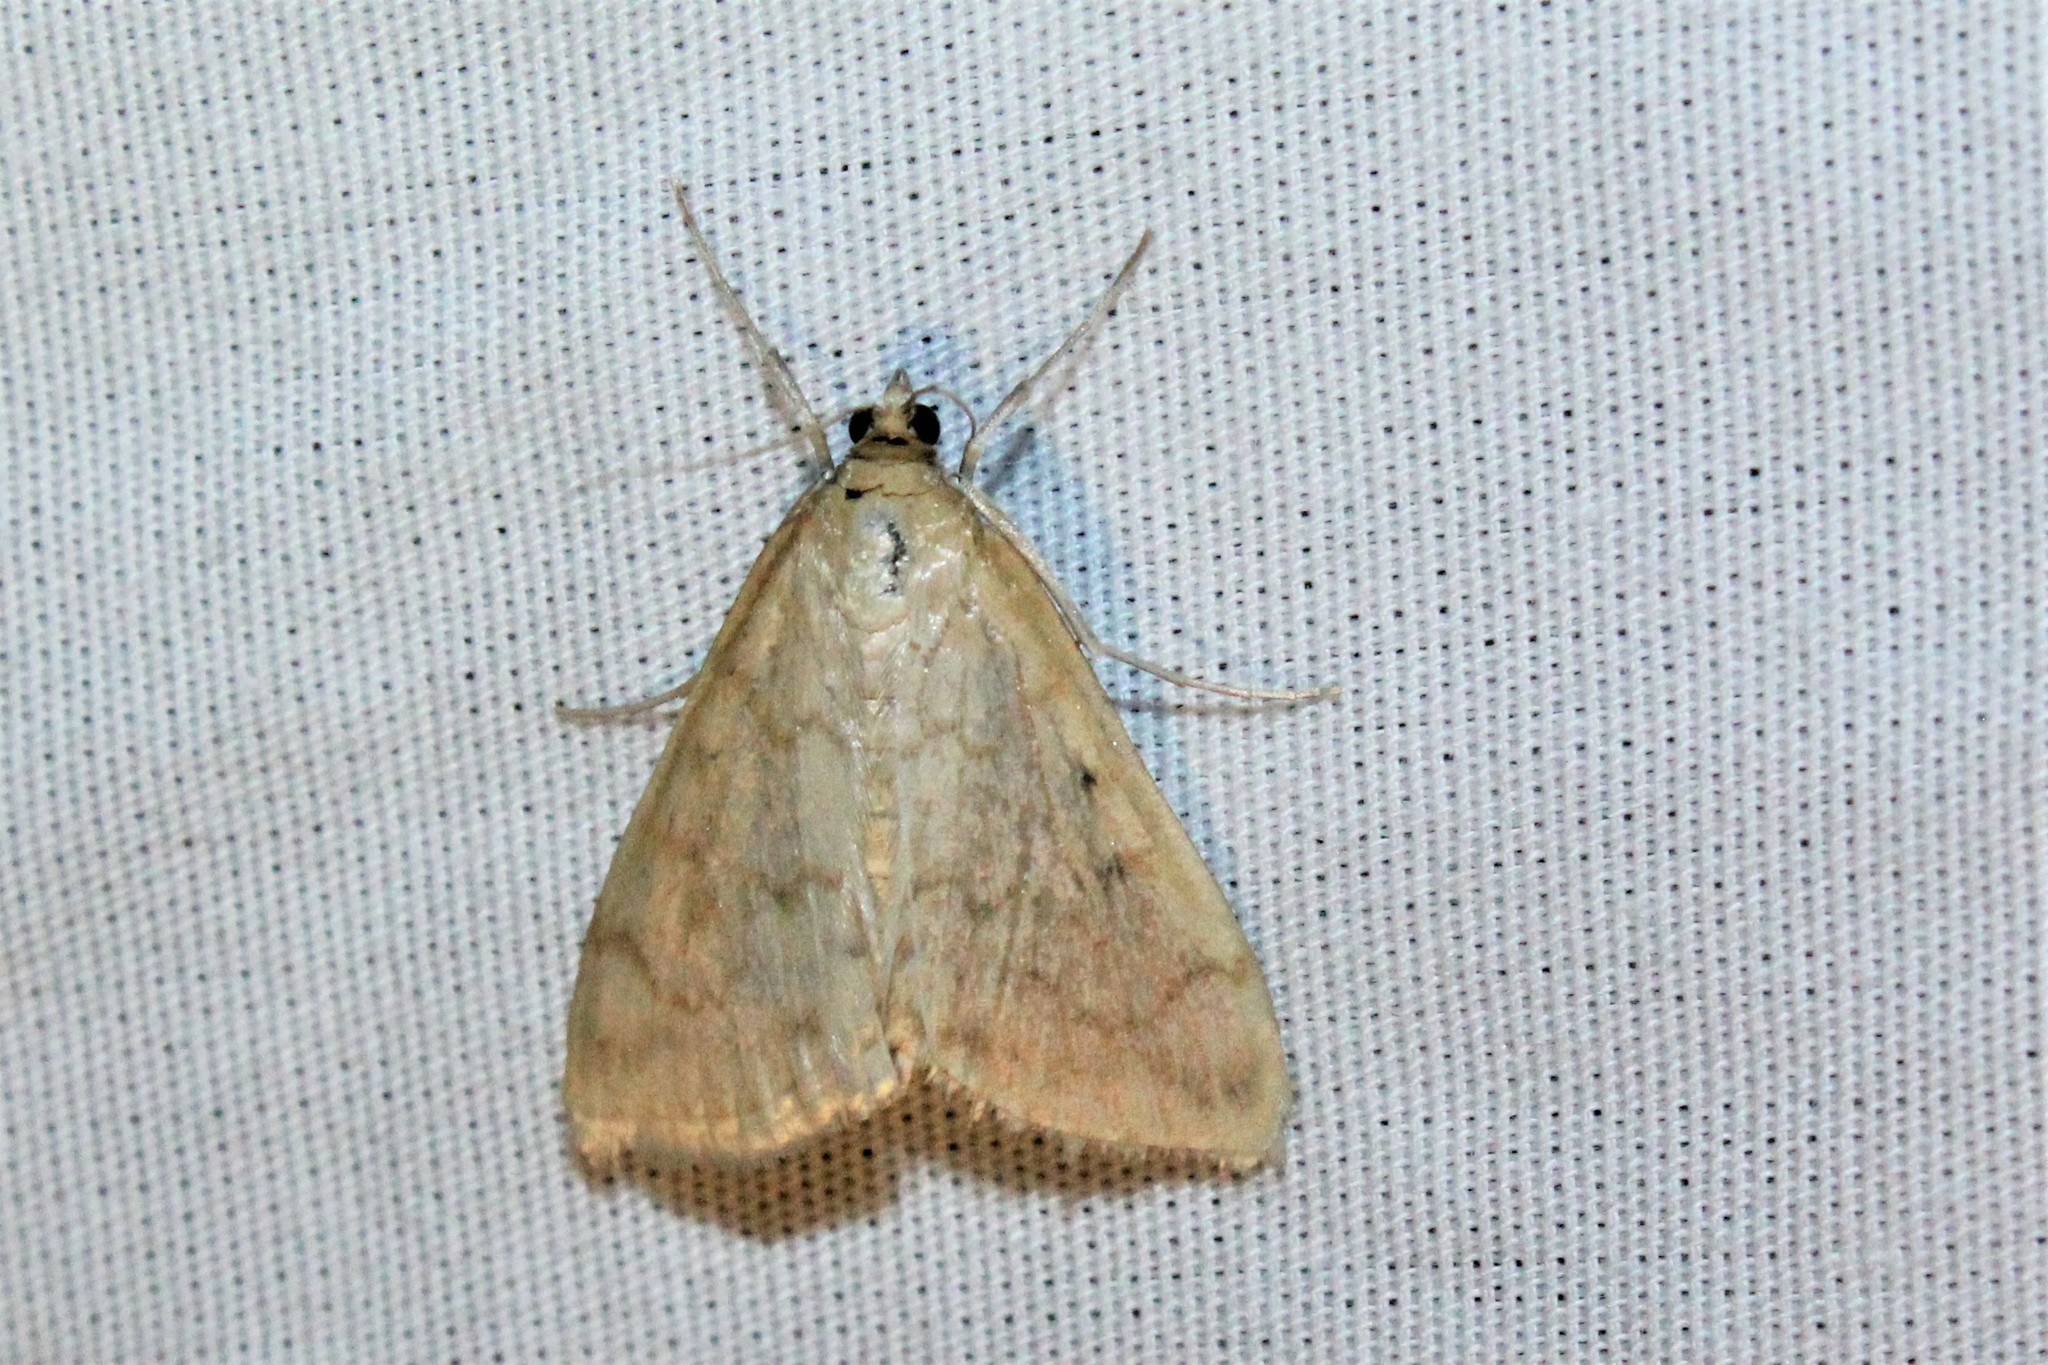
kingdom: Animalia
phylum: Arthropoda
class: Insecta
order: Lepidoptera
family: Crambidae
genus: Hahncappsia
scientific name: Hahncappsia pergilvalis
